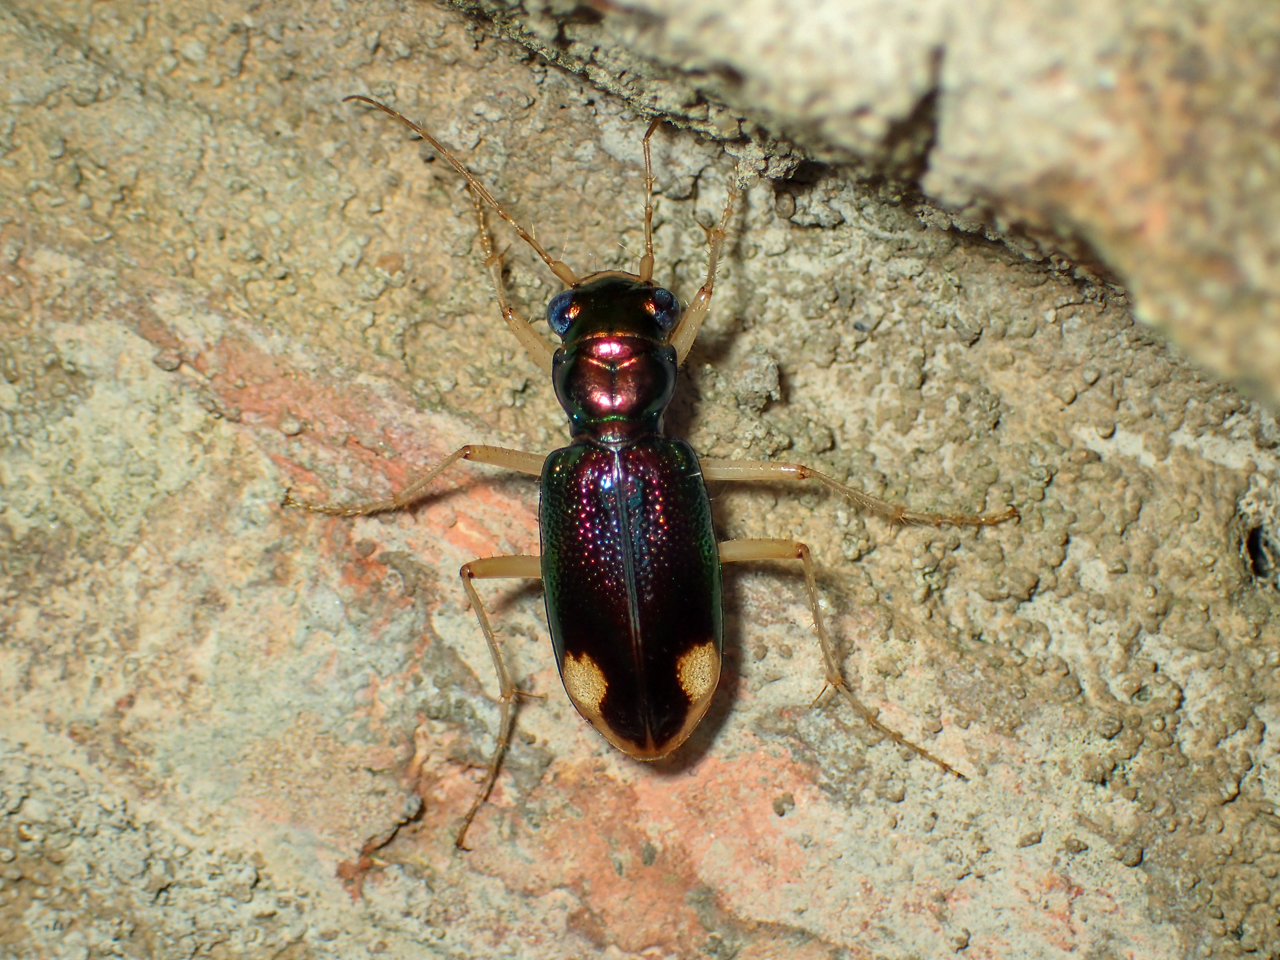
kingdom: Animalia
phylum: Arthropoda
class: Insecta
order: Coleoptera
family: Carabidae
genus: Tetracha
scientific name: Tetracha carolina
